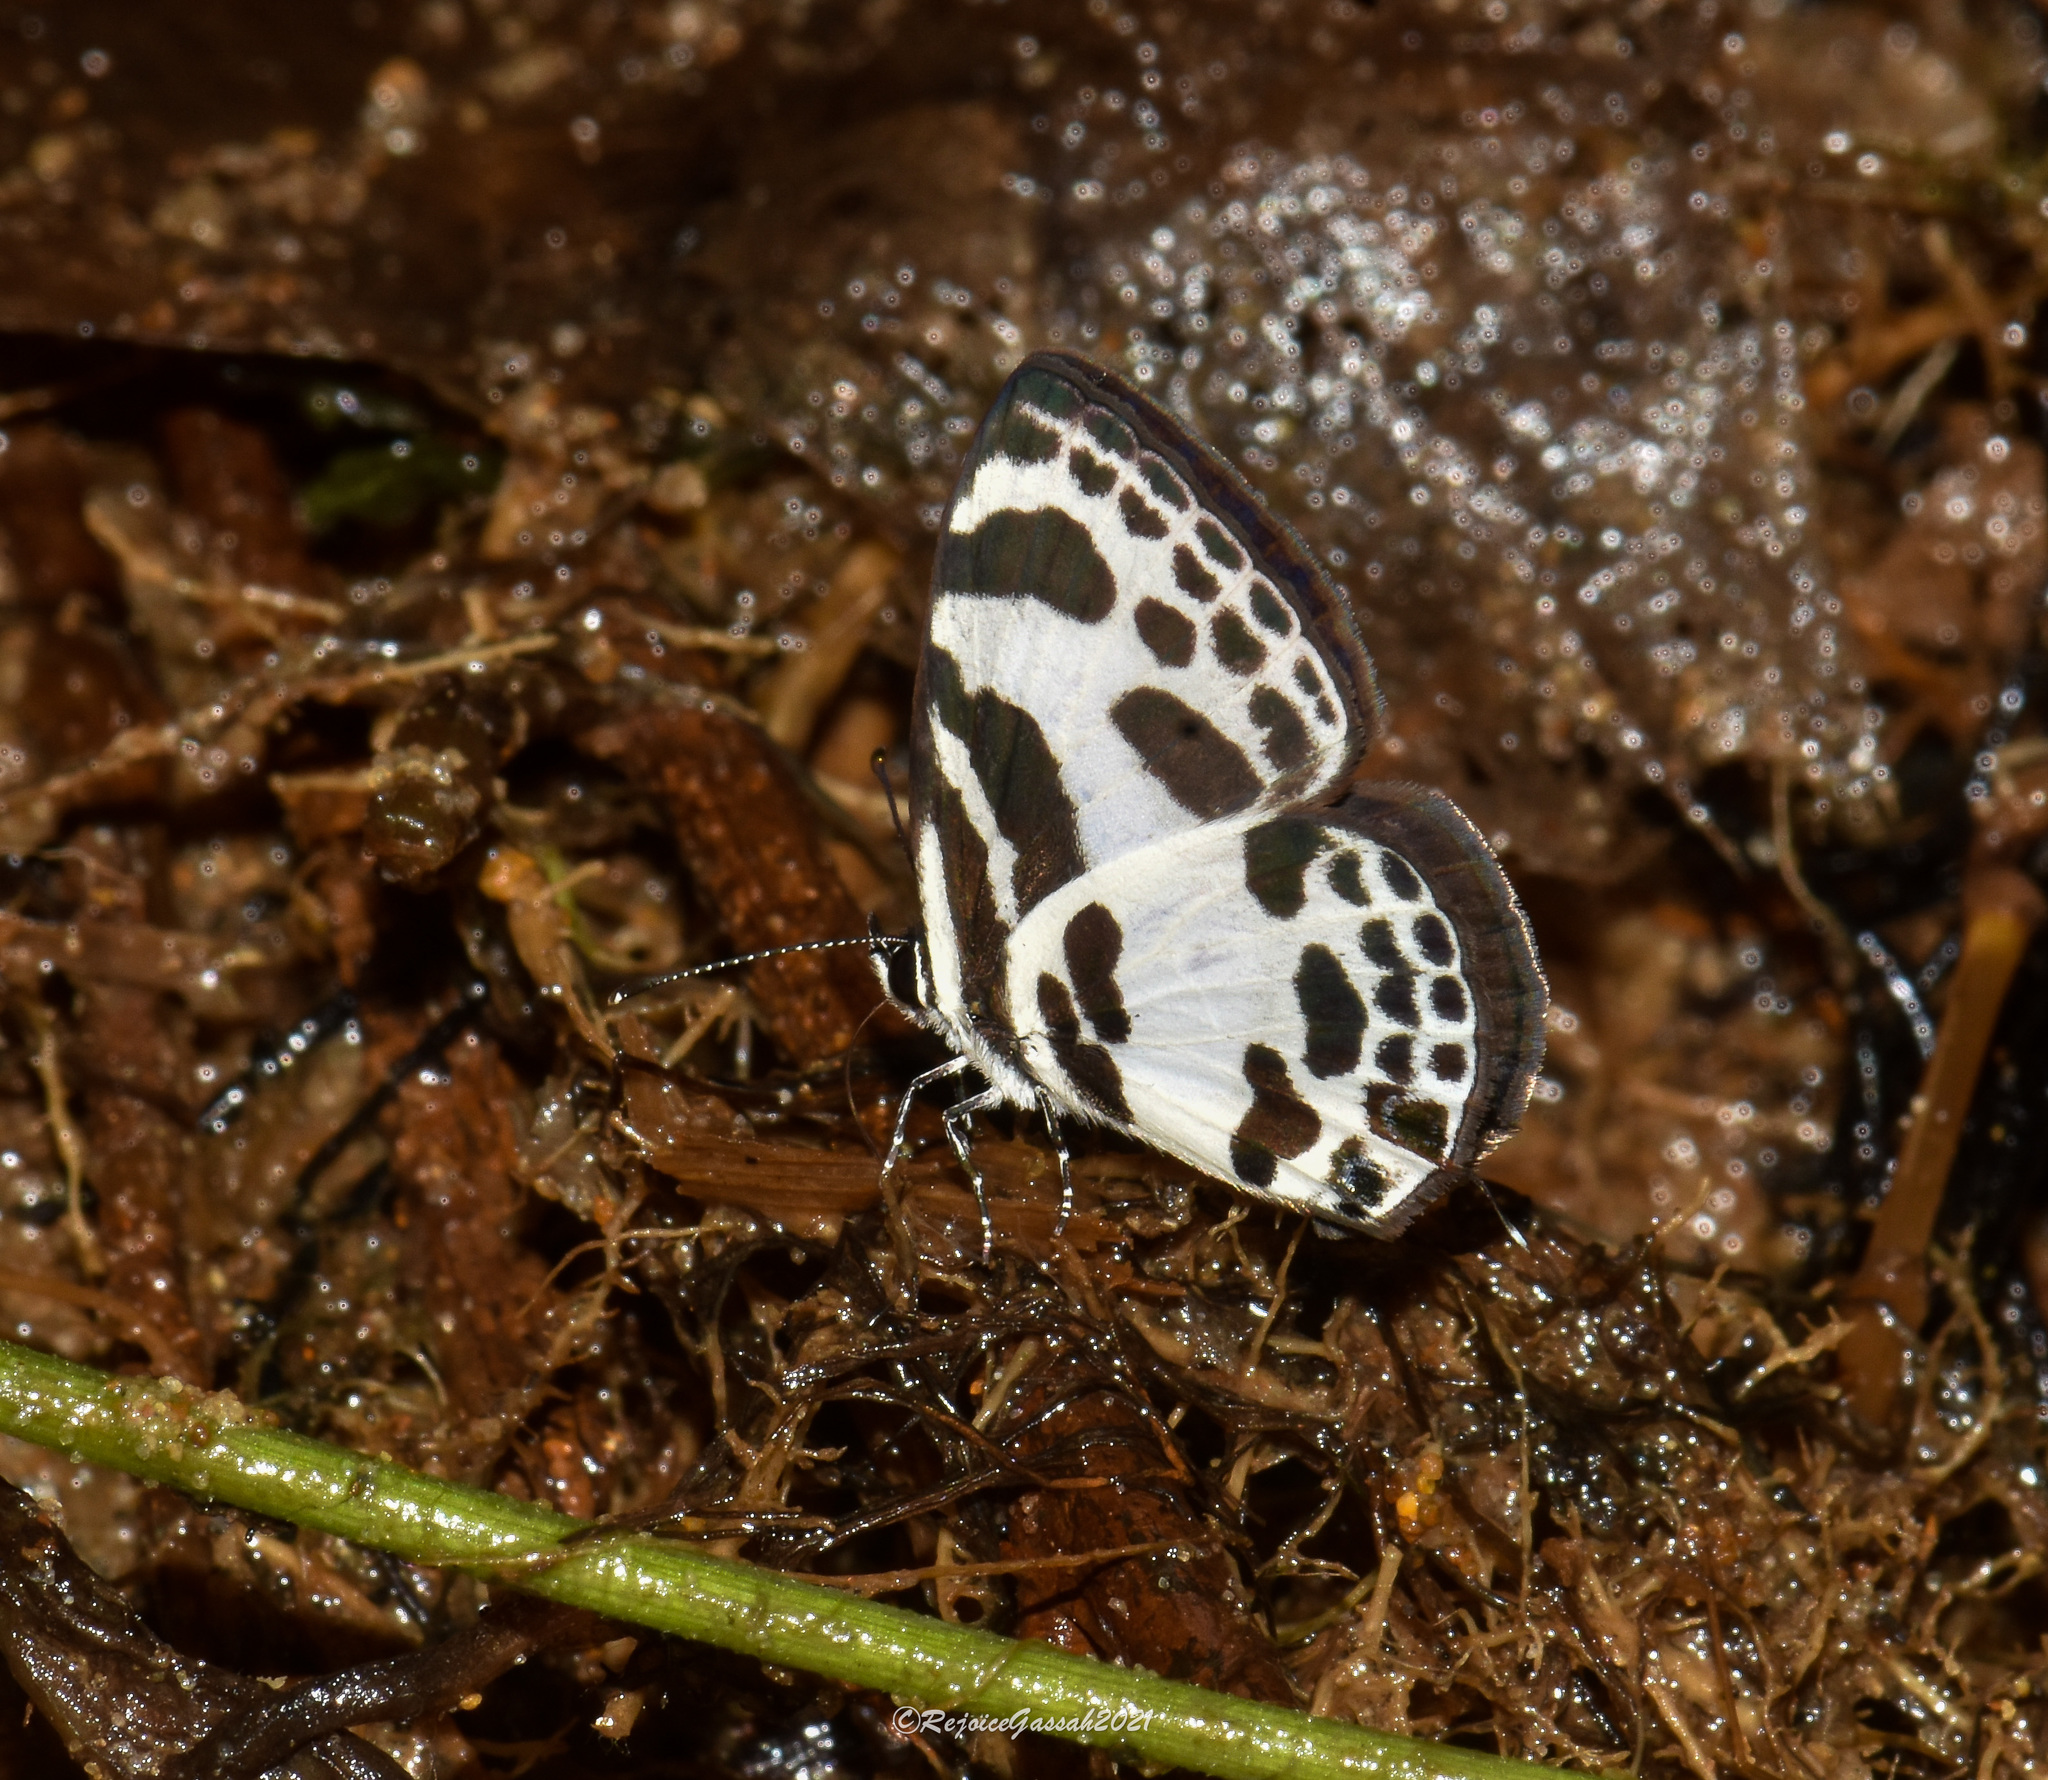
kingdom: Animalia
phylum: Arthropoda
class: Insecta
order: Lepidoptera
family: Lycaenidae
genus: Discolampa
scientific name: Discolampa ethion
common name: Banded blue pierrot
